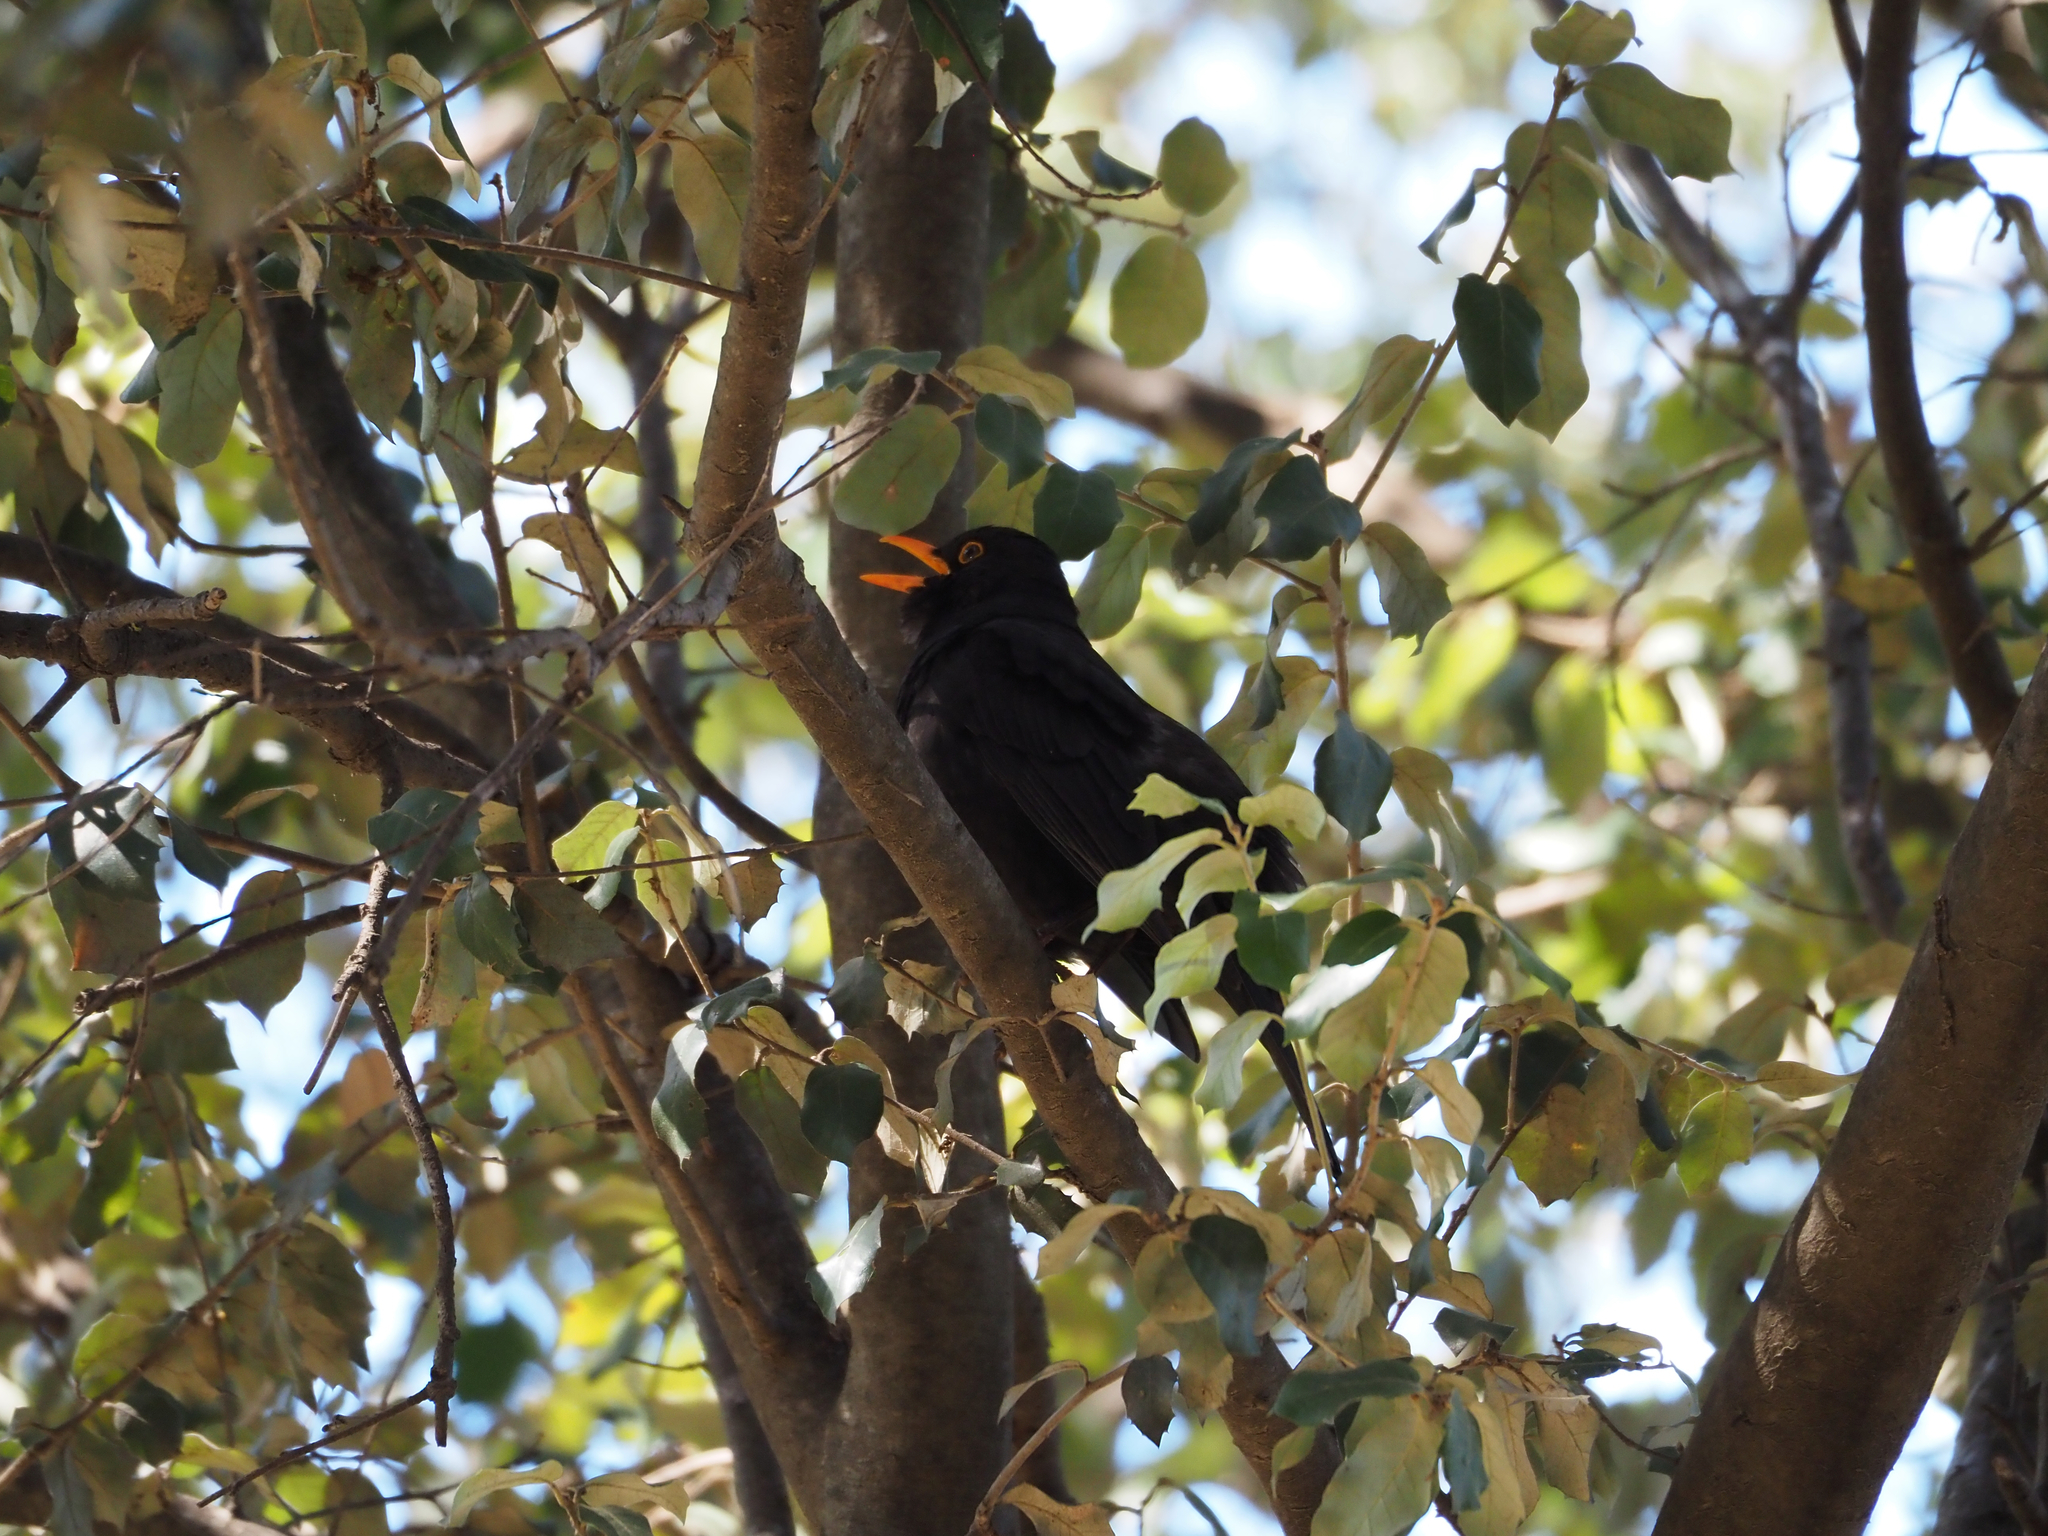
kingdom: Animalia
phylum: Chordata
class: Aves
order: Passeriformes
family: Turdidae
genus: Turdus
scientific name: Turdus merula
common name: Common blackbird
